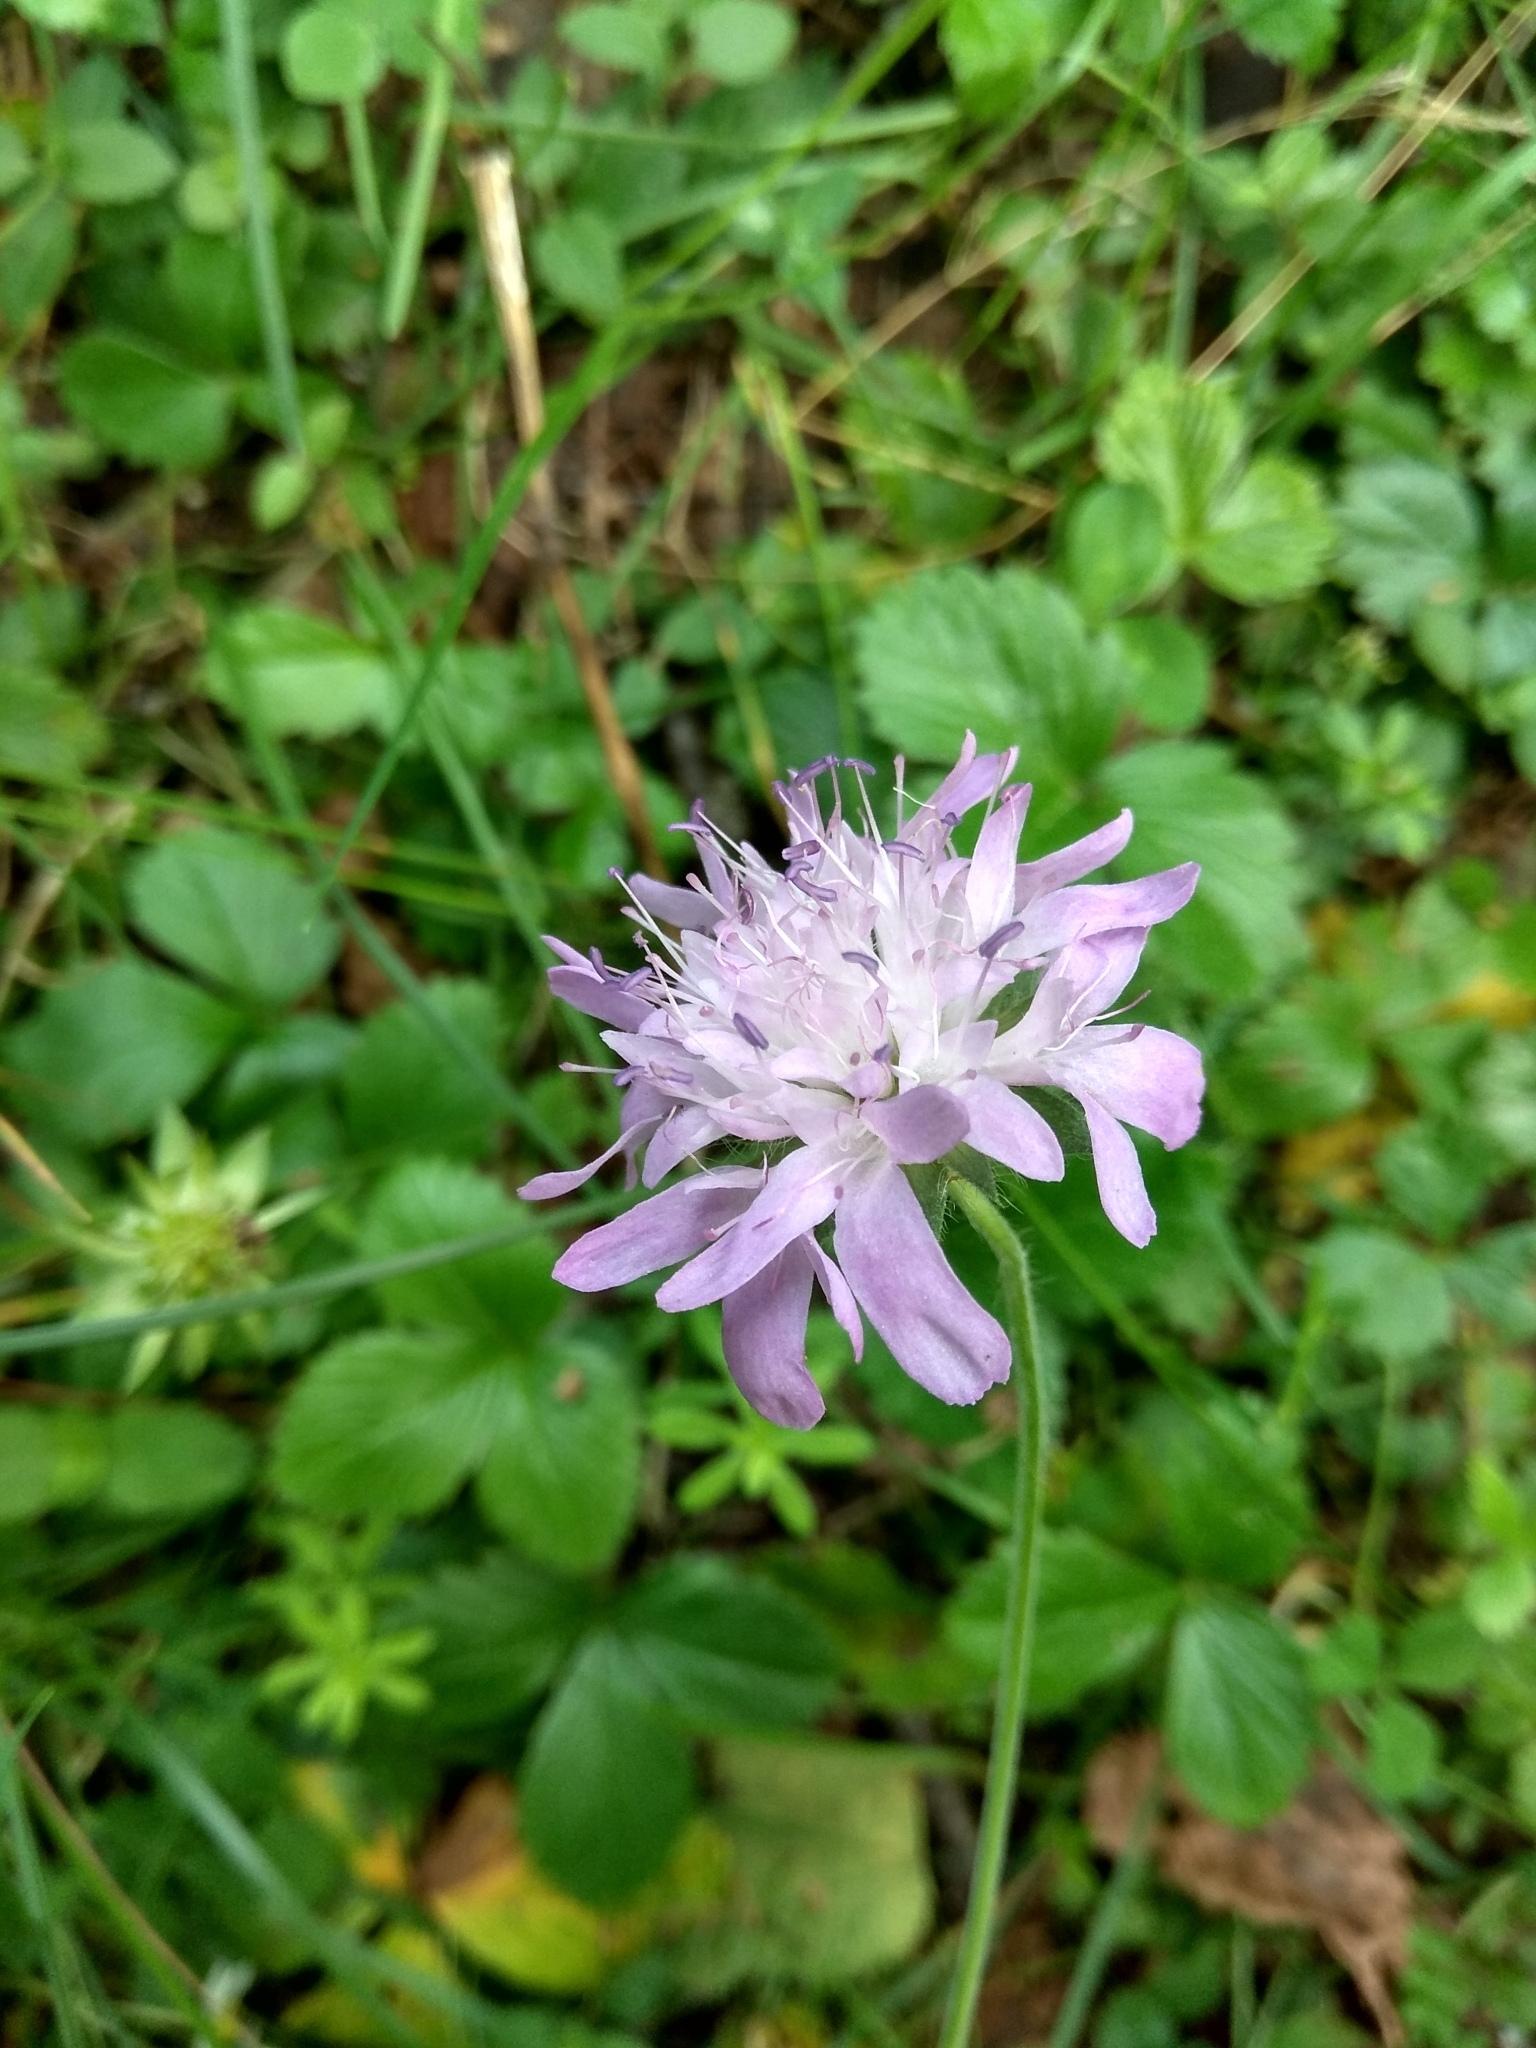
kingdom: Plantae
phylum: Tracheophyta
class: Magnoliopsida
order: Dipsacales
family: Caprifoliaceae
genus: Knautia
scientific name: Knautia arvensis
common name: Field scabiosa
